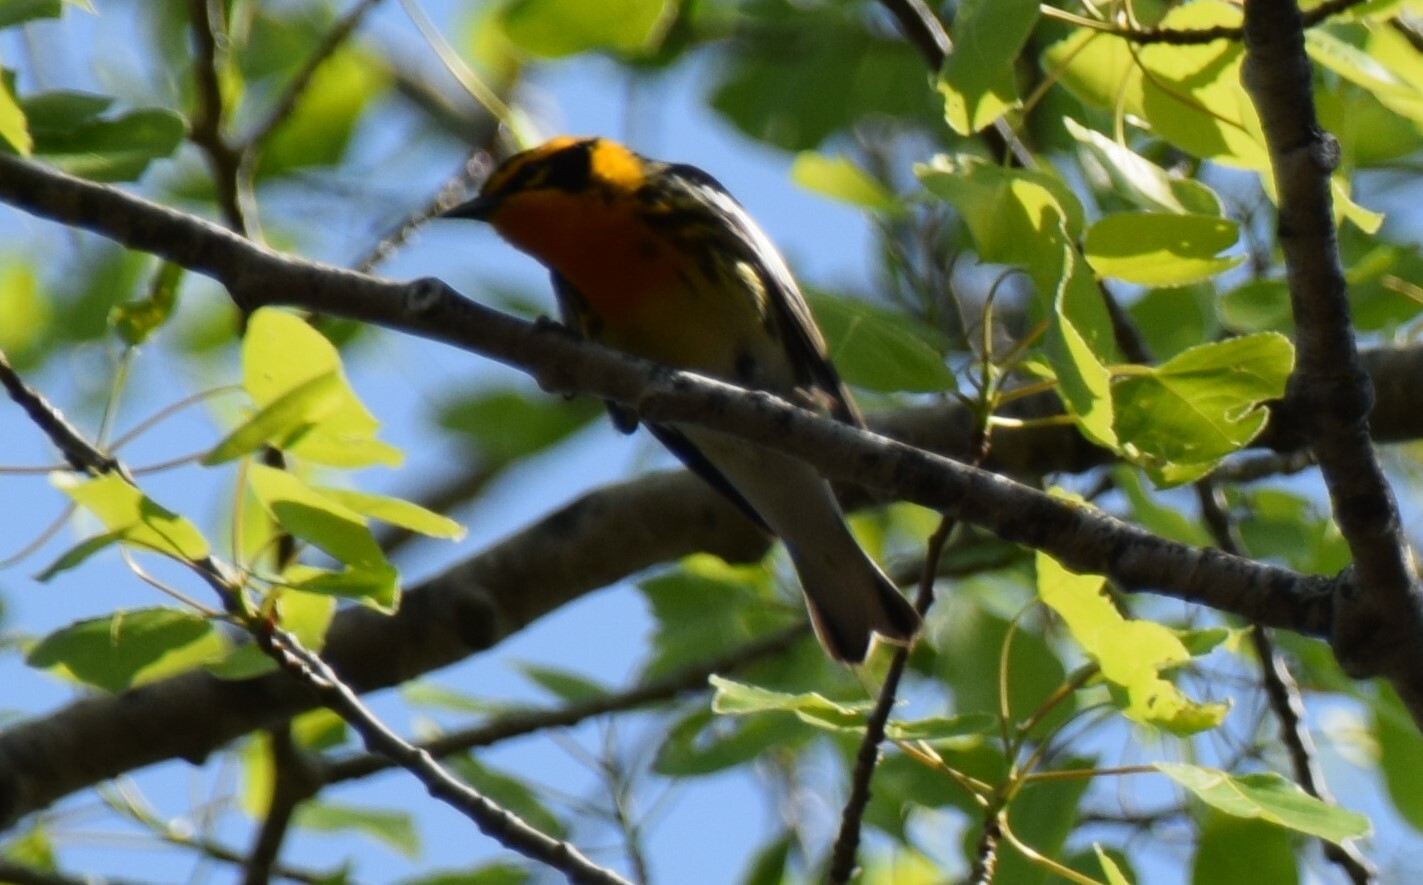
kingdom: Animalia
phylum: Chordata
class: Aves
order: Passeriformes
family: Parulidae
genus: Setophaga
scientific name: Setophaga fusca
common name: Blackburnian warbler
